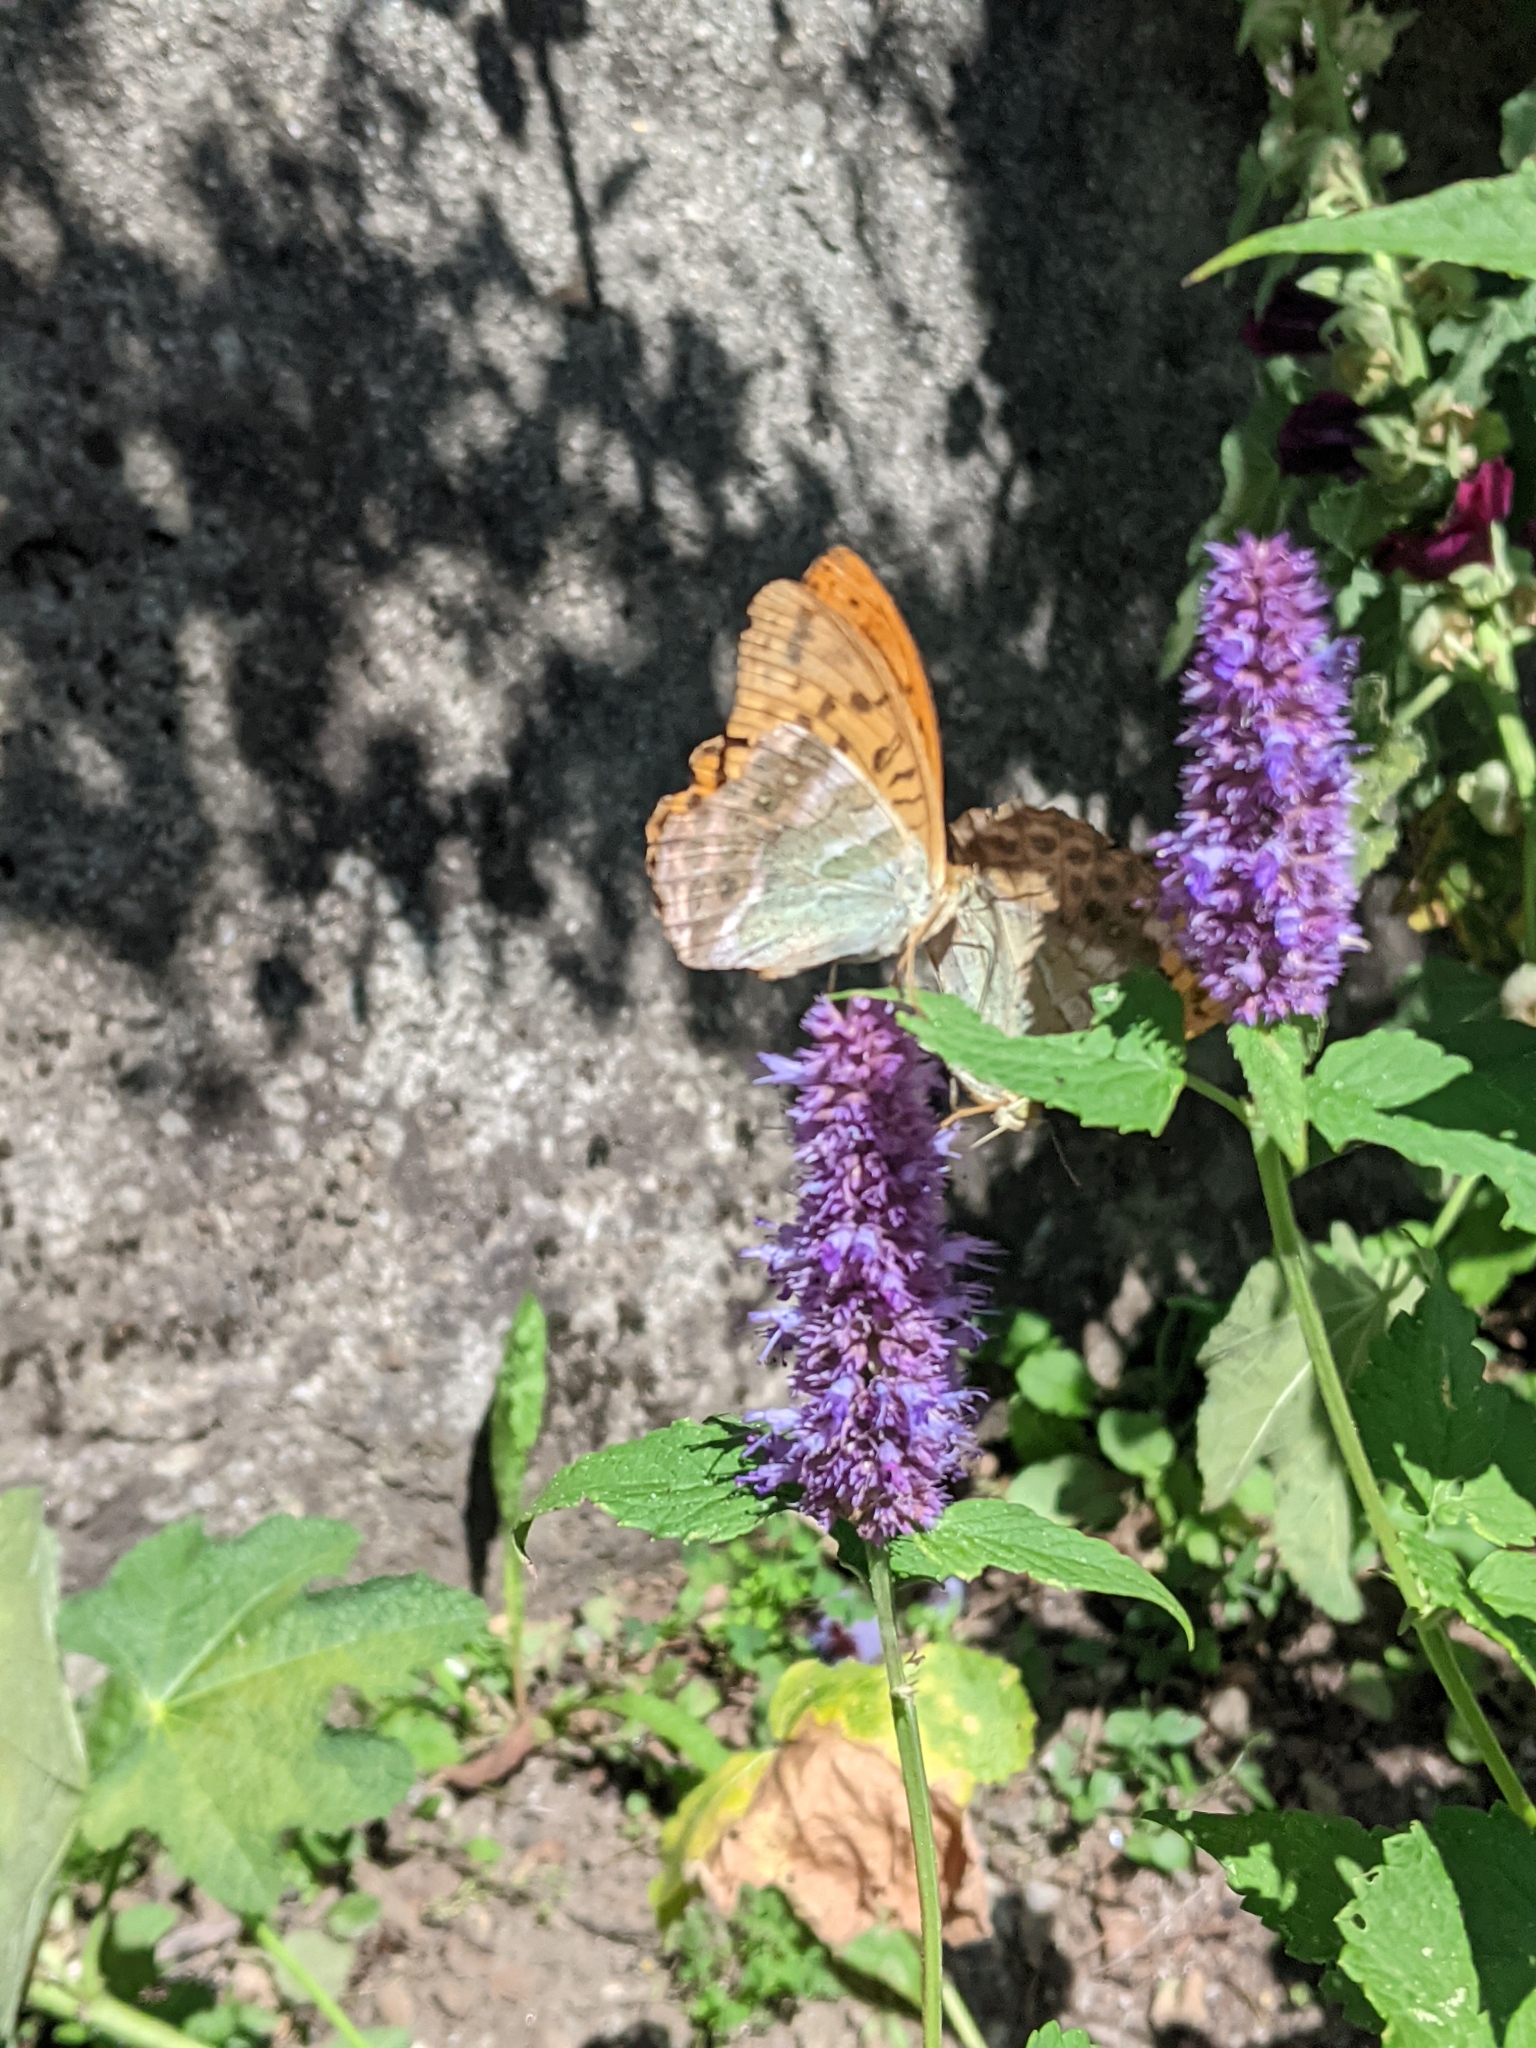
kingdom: Animalia
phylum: Arthropoda
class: Insecta
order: Lepidoptera
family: Nymphalidae
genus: Argynnis
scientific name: Argynnis paphia
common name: Silver-washed fritillary
